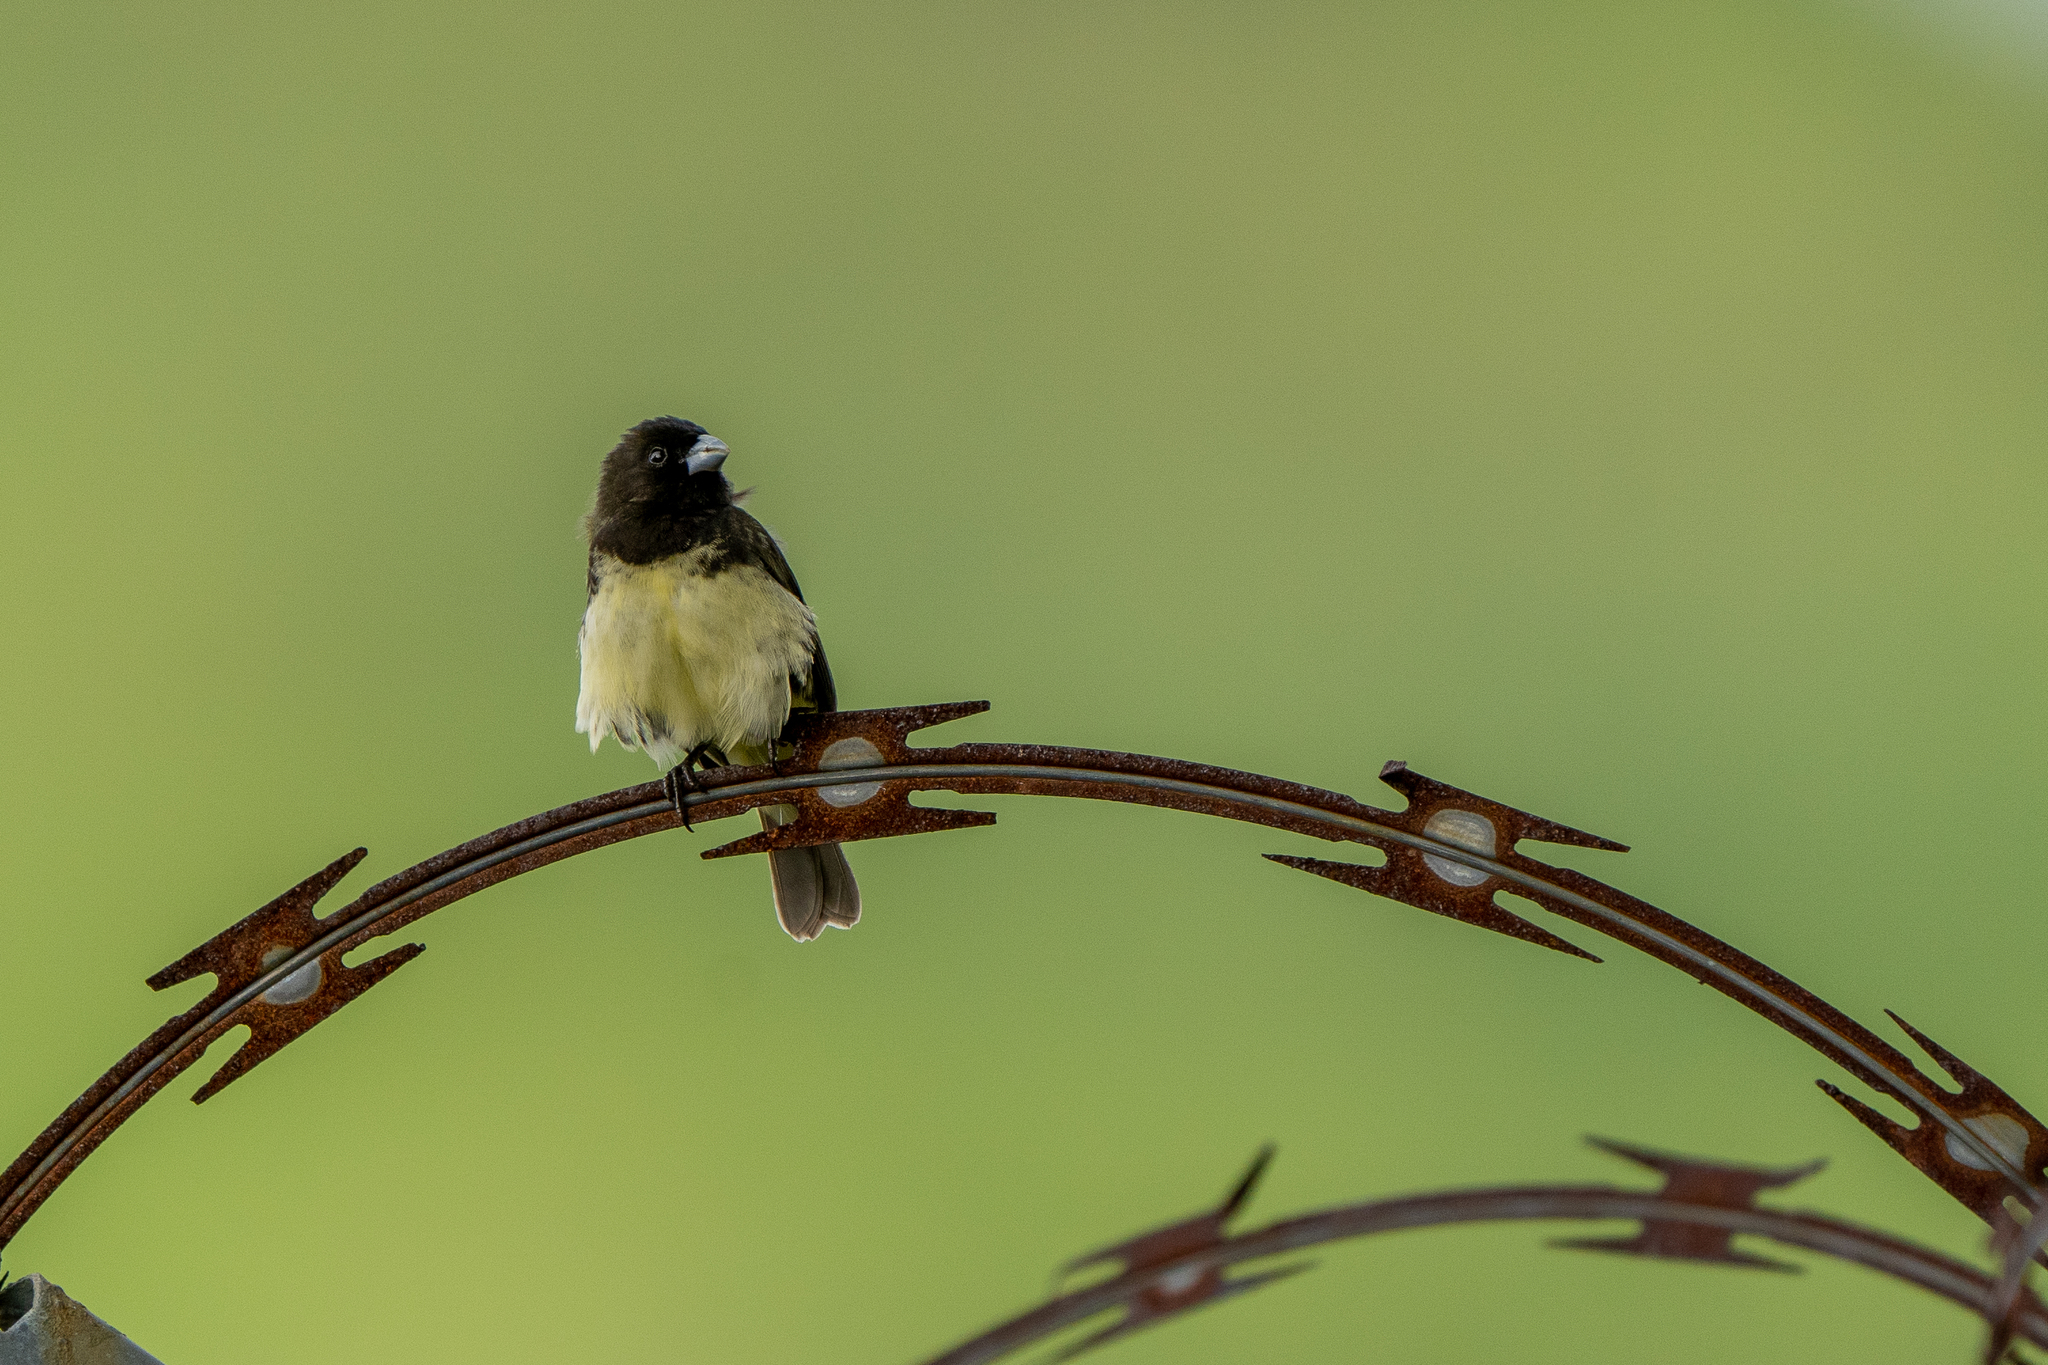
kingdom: Animalia
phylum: Chordata
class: Aves
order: Passeriformes
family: Thraupidae
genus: Sporophila
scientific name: Sporophila nigricollis
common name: Yellow-bellied seedeater
